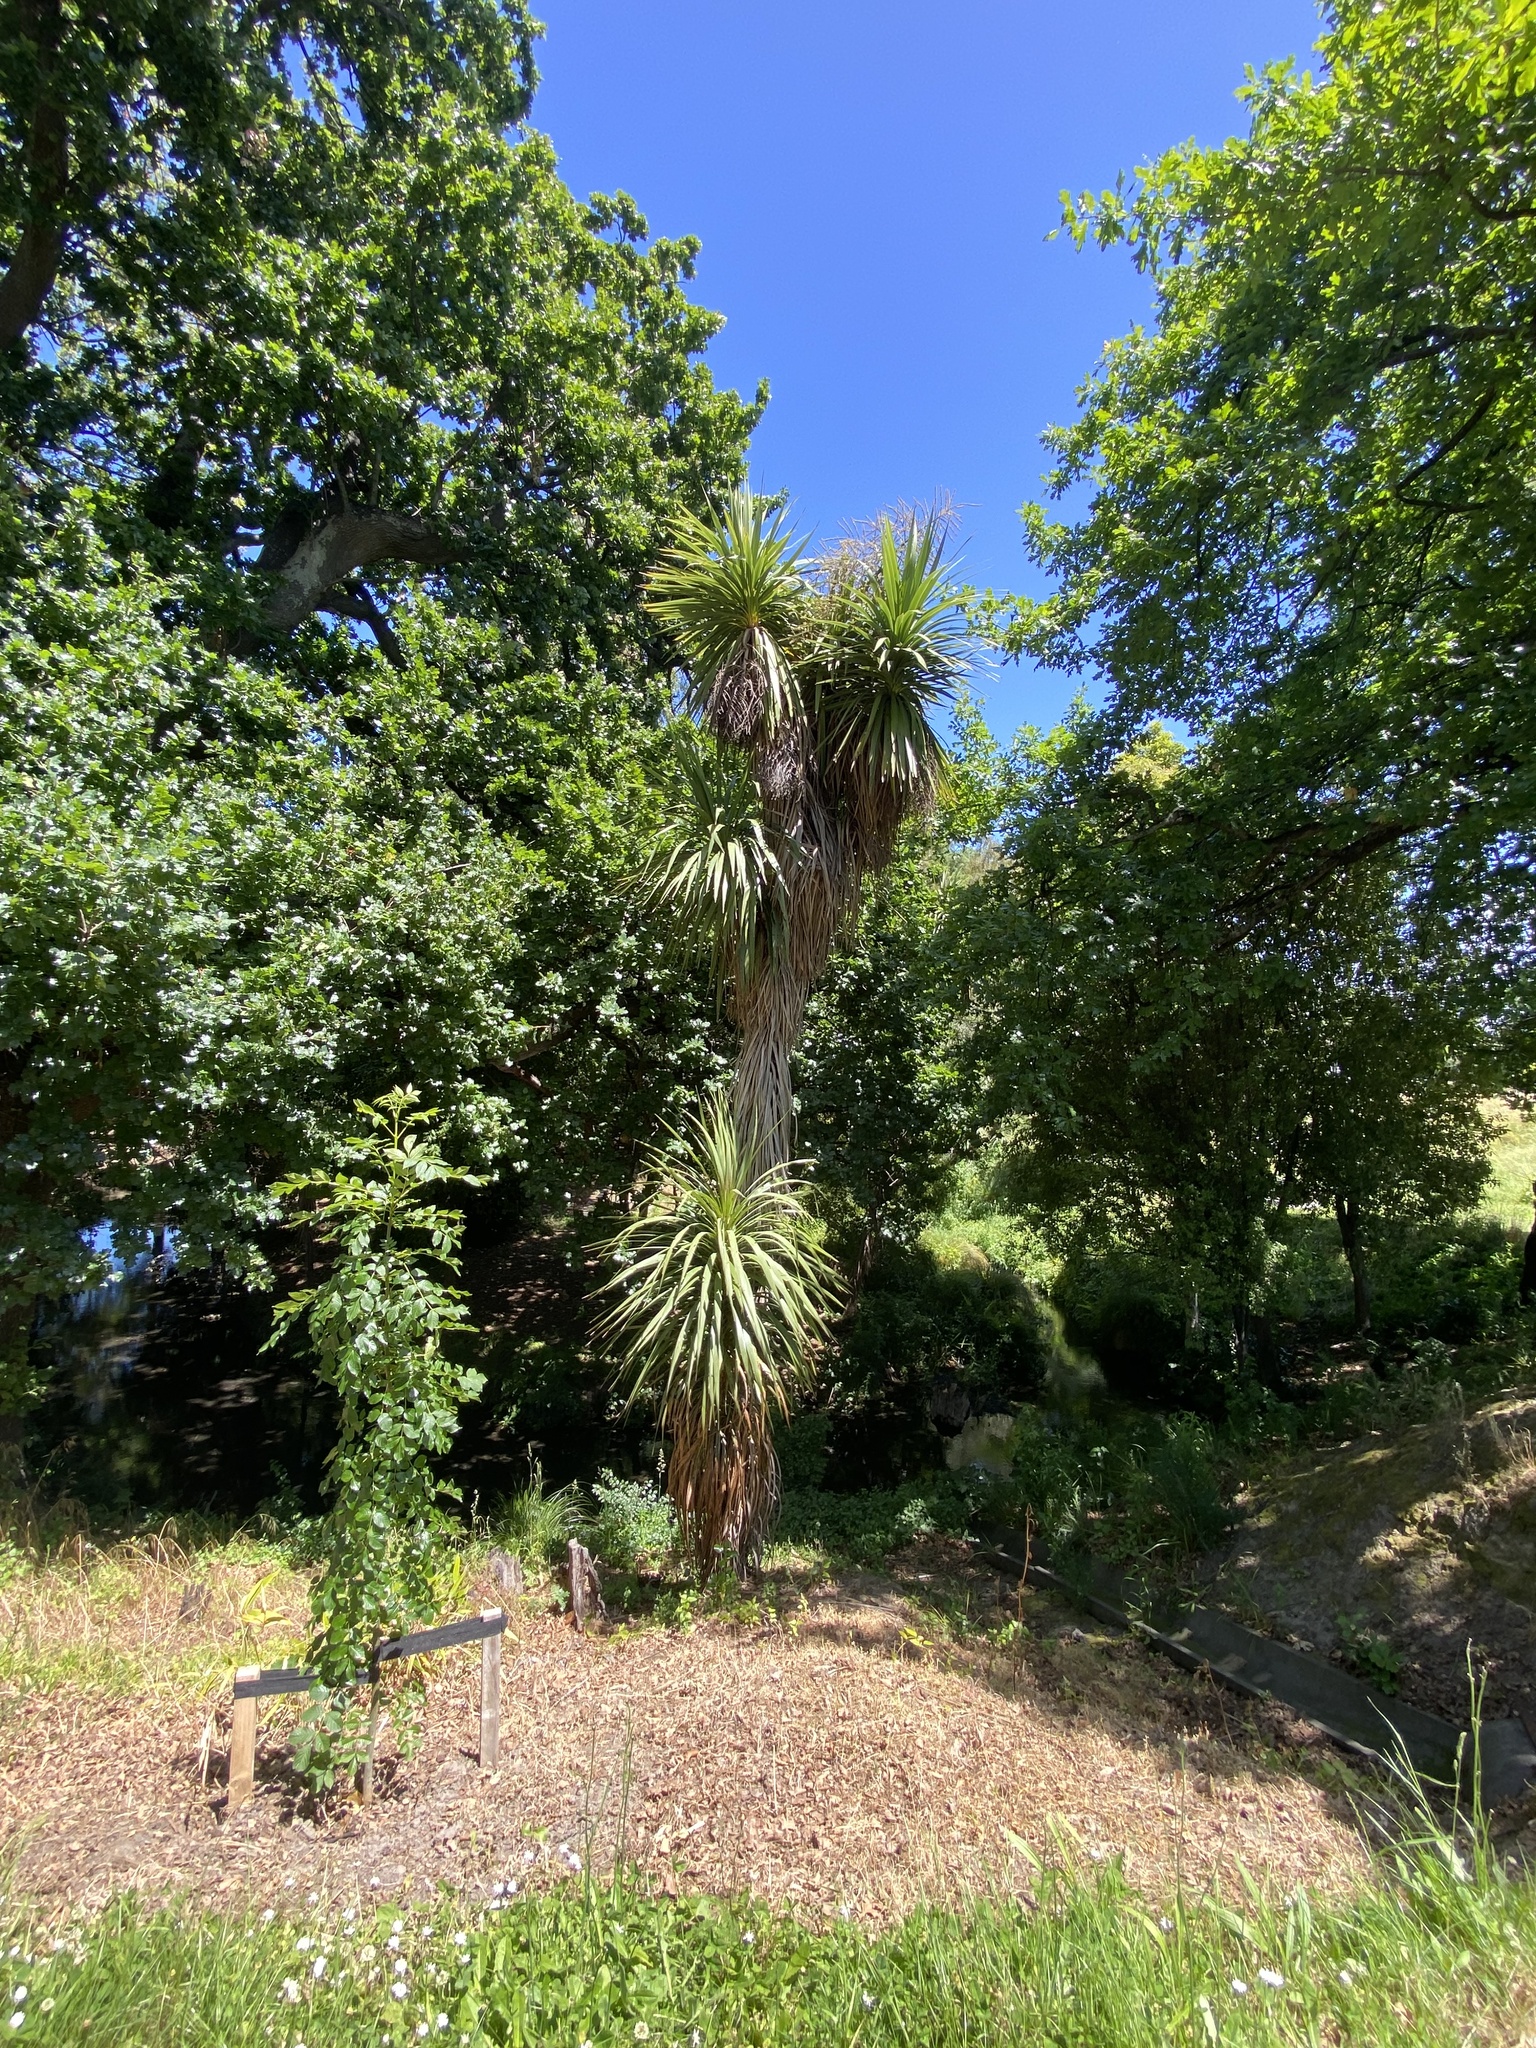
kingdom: Plantae
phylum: Tracheophyta
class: Liliopsida
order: Asparagales
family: Asparagaceae
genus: Cordyline
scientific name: Cordyline australis
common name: Cabbage-palm
